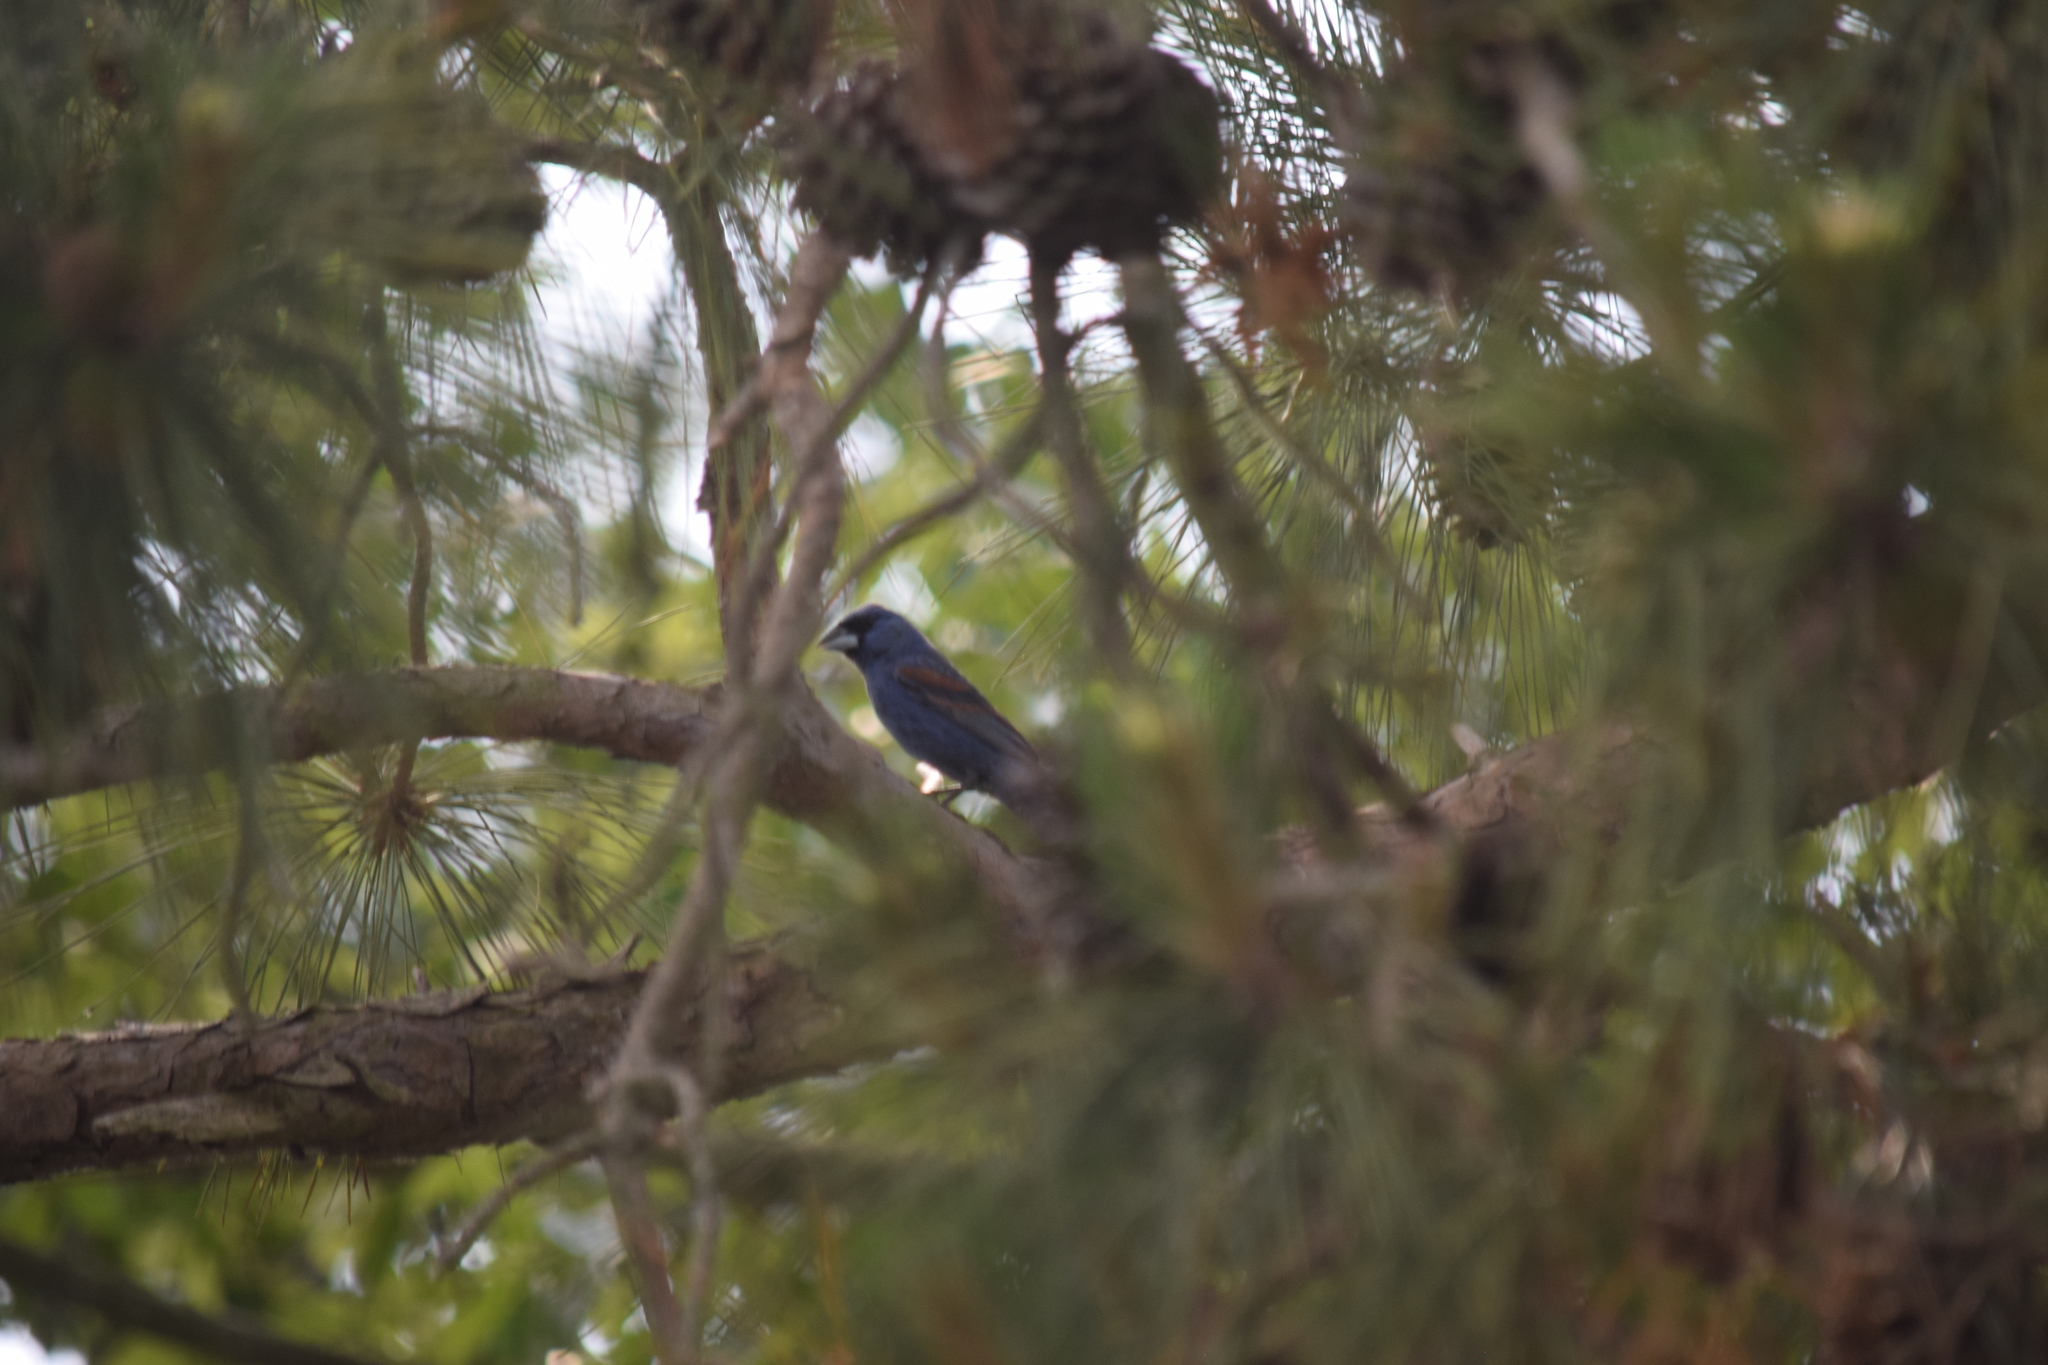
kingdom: Animalia
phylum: Chordata
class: Aves
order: Passeriformes
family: Cardinalidae
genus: Passerina
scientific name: Passerina caerulea
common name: Blue grosbeak
